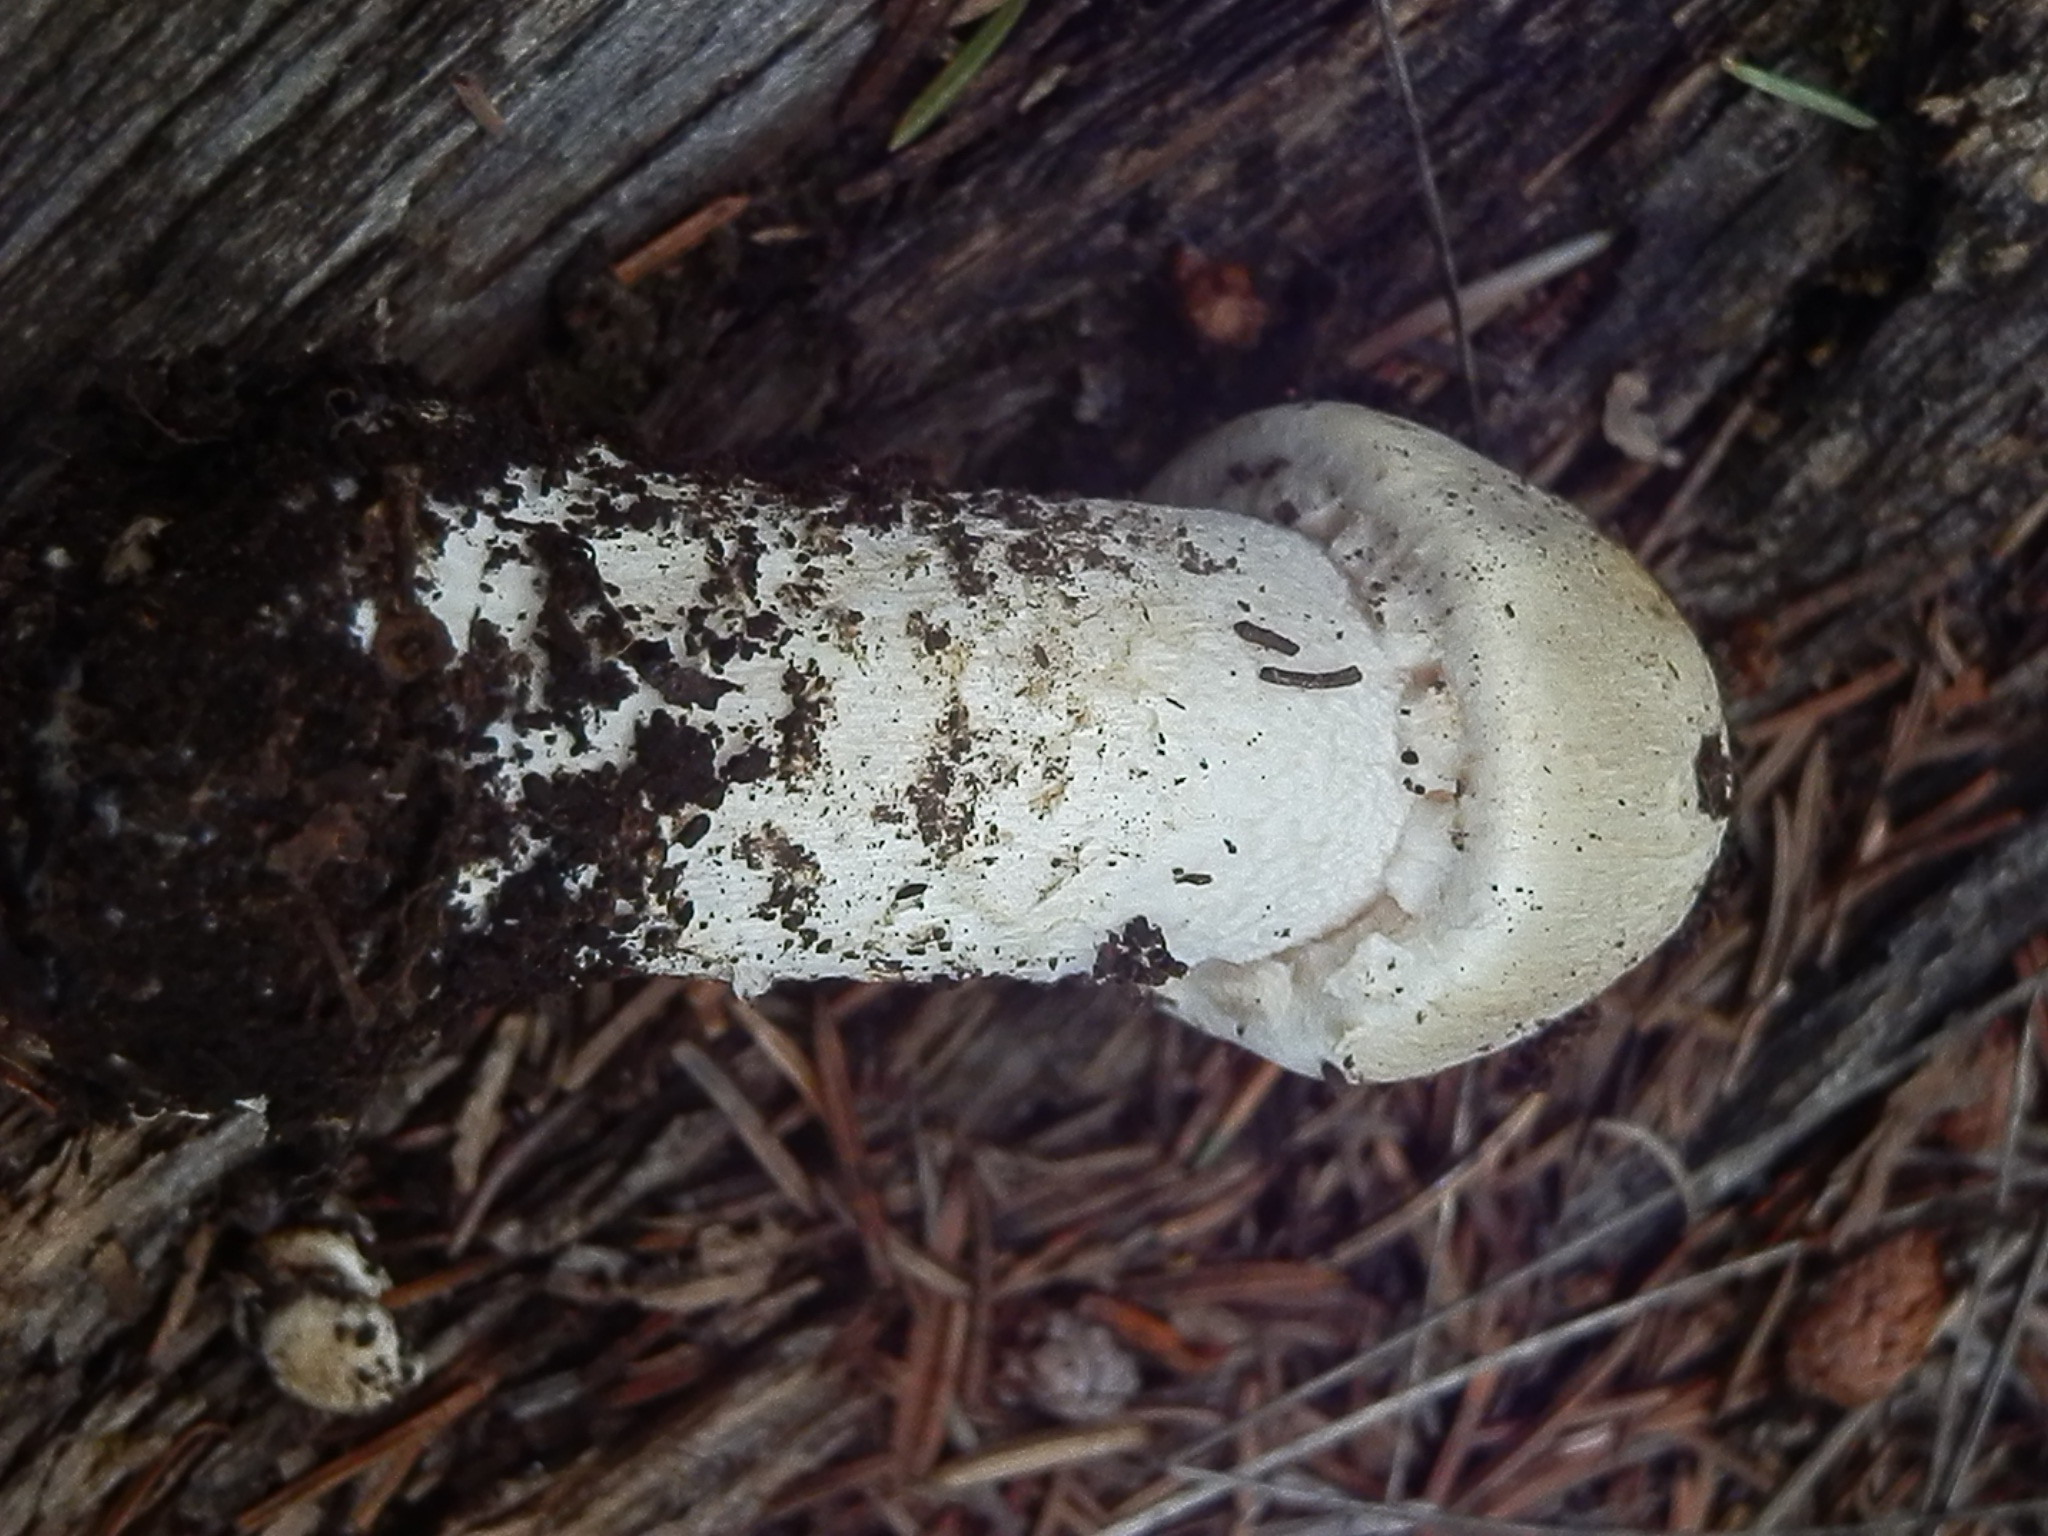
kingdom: Fungi
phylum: Basidiomycota
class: Agaricomycetes
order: Agaricales
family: Agaricaceae
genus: Agaricus
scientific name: Agaricus didymus
